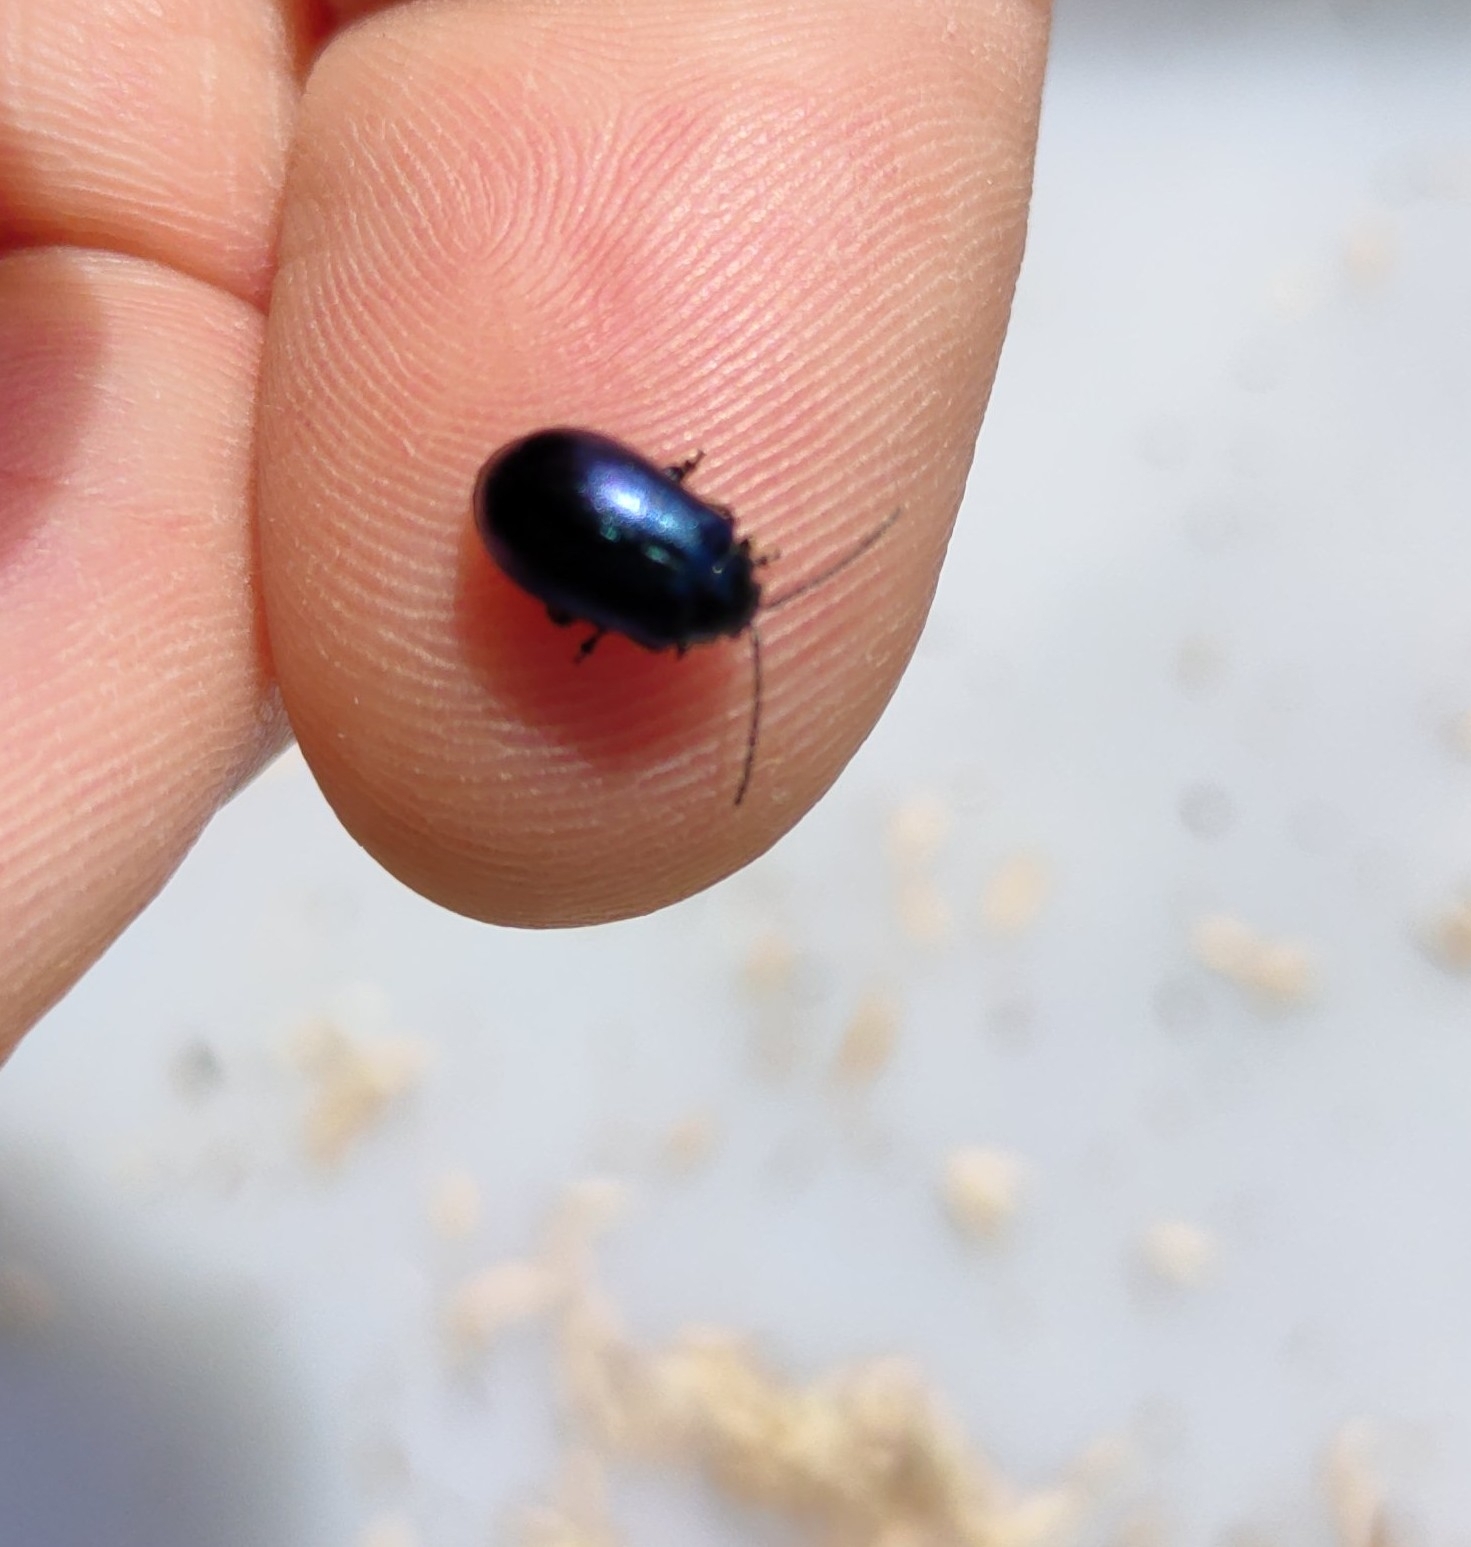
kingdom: Animalia
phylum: Arthropoda
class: Insecta
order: Coleoptera
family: Chrysomelidae
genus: Agelastica
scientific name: Agelastica alni
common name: Alder leaf beetle
